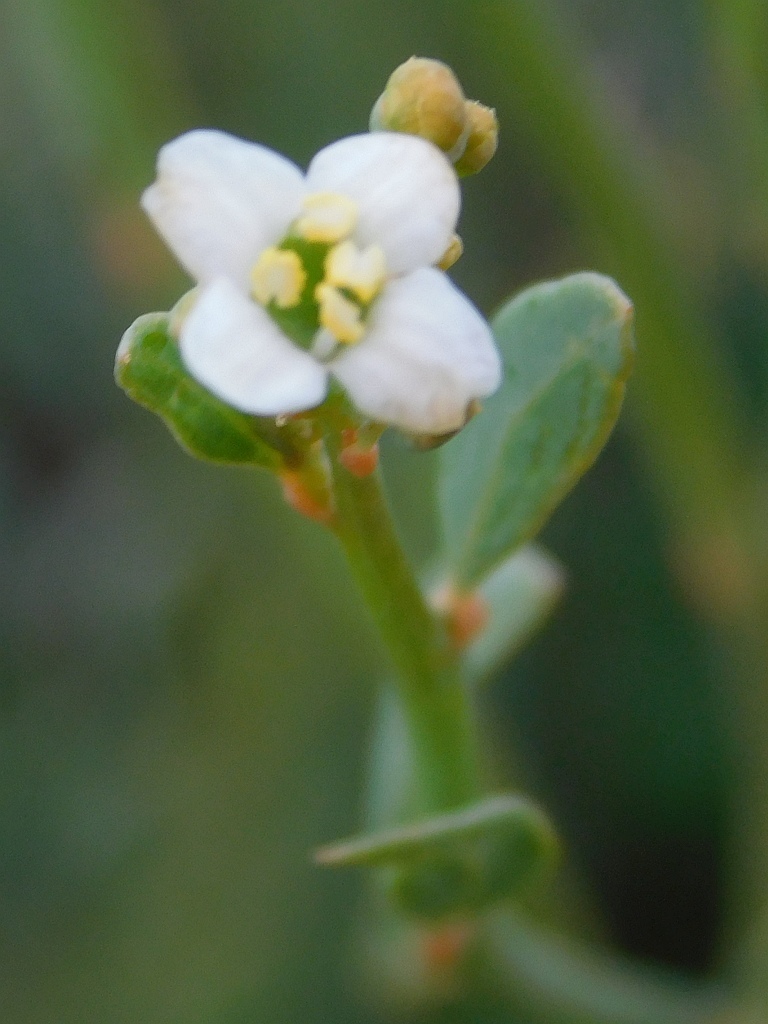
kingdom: Plantae
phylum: Tracheophyta
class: Magnoliopsida
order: Solanales
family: Montiniaceae
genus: Montinia
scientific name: Montinia caryophyllacea
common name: Wild clove-bush
